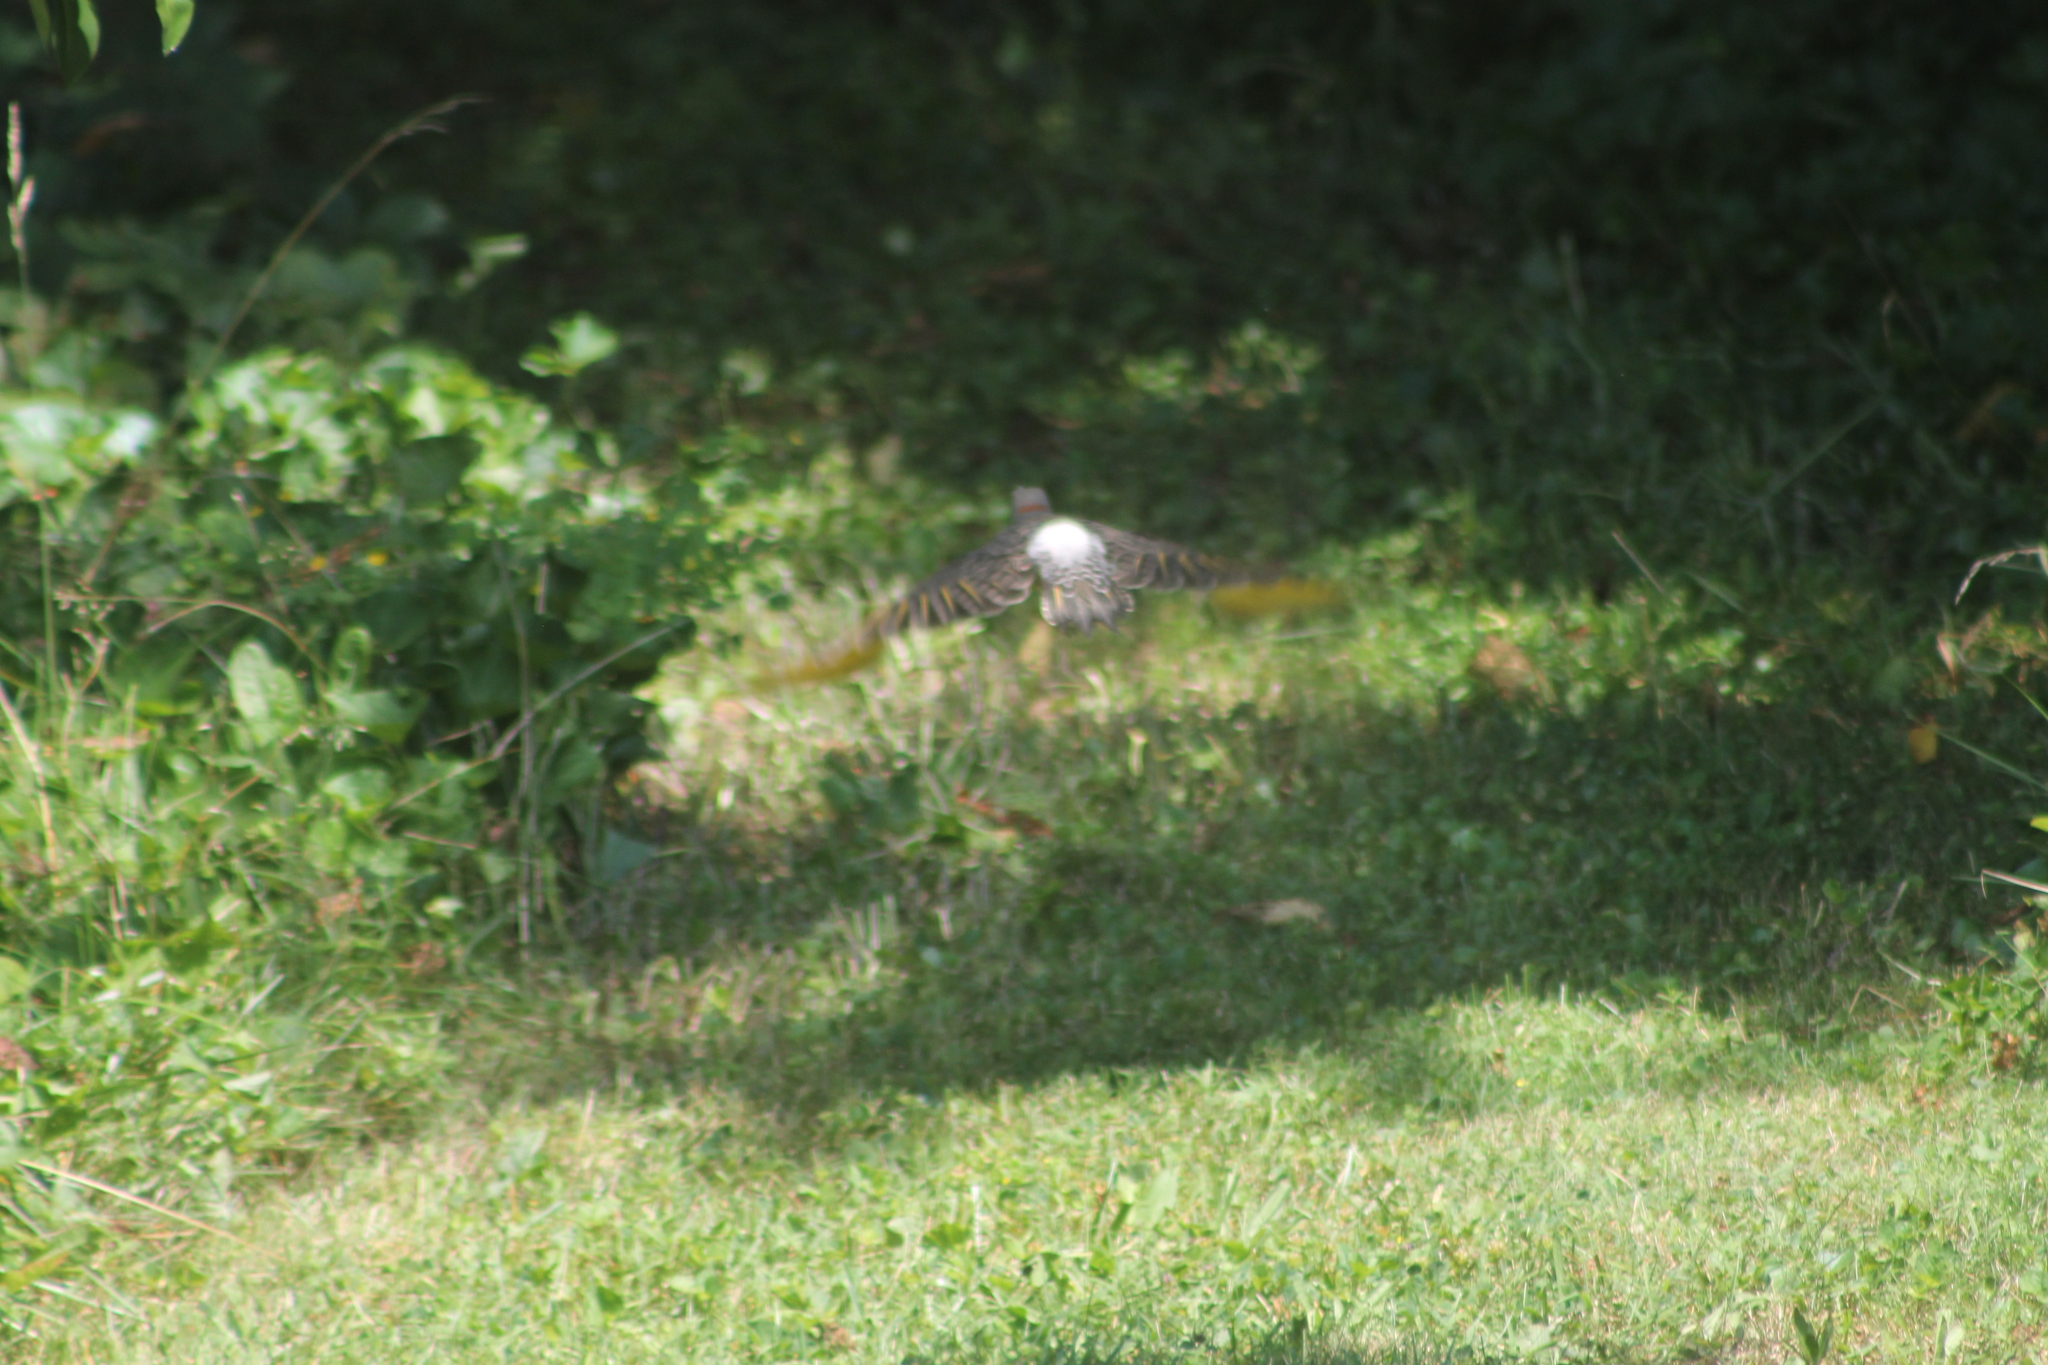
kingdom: Animalia
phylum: Chordata
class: Aves
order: Piciformes
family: Picidae
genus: Colaptes
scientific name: Colaptes auratus
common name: Northern flicker
